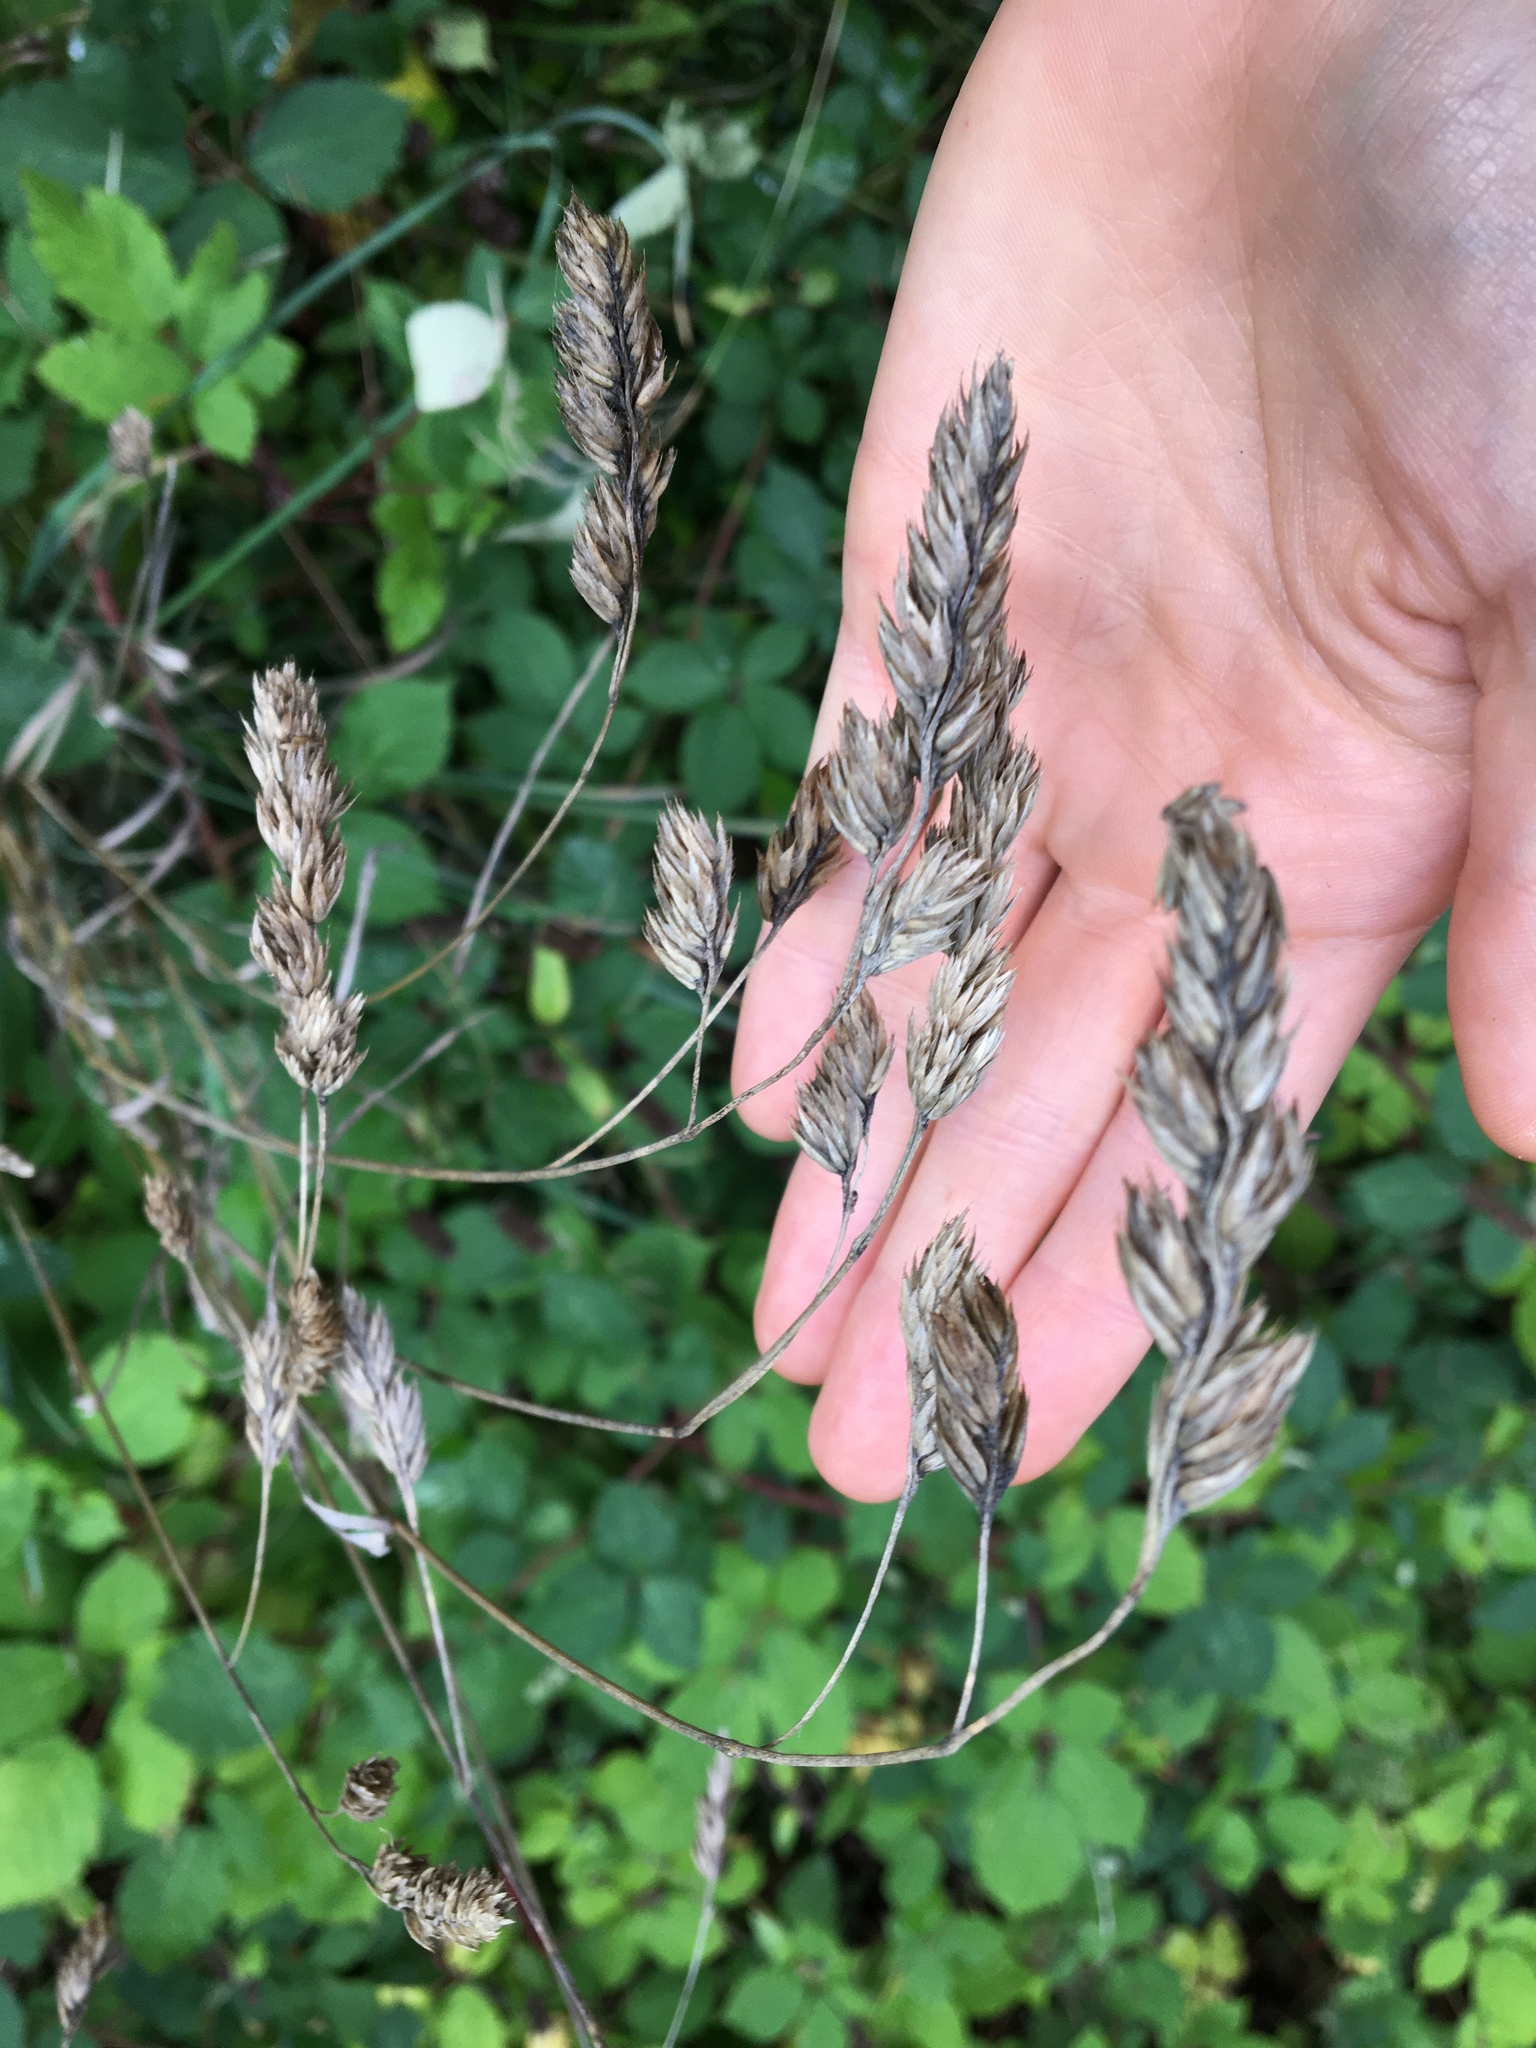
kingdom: Plantae
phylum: Tracheophyta
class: Liliopsida
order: Poales
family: Poaceae
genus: Dactylis
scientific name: Dactylis glomerata
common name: Orchardgrass
